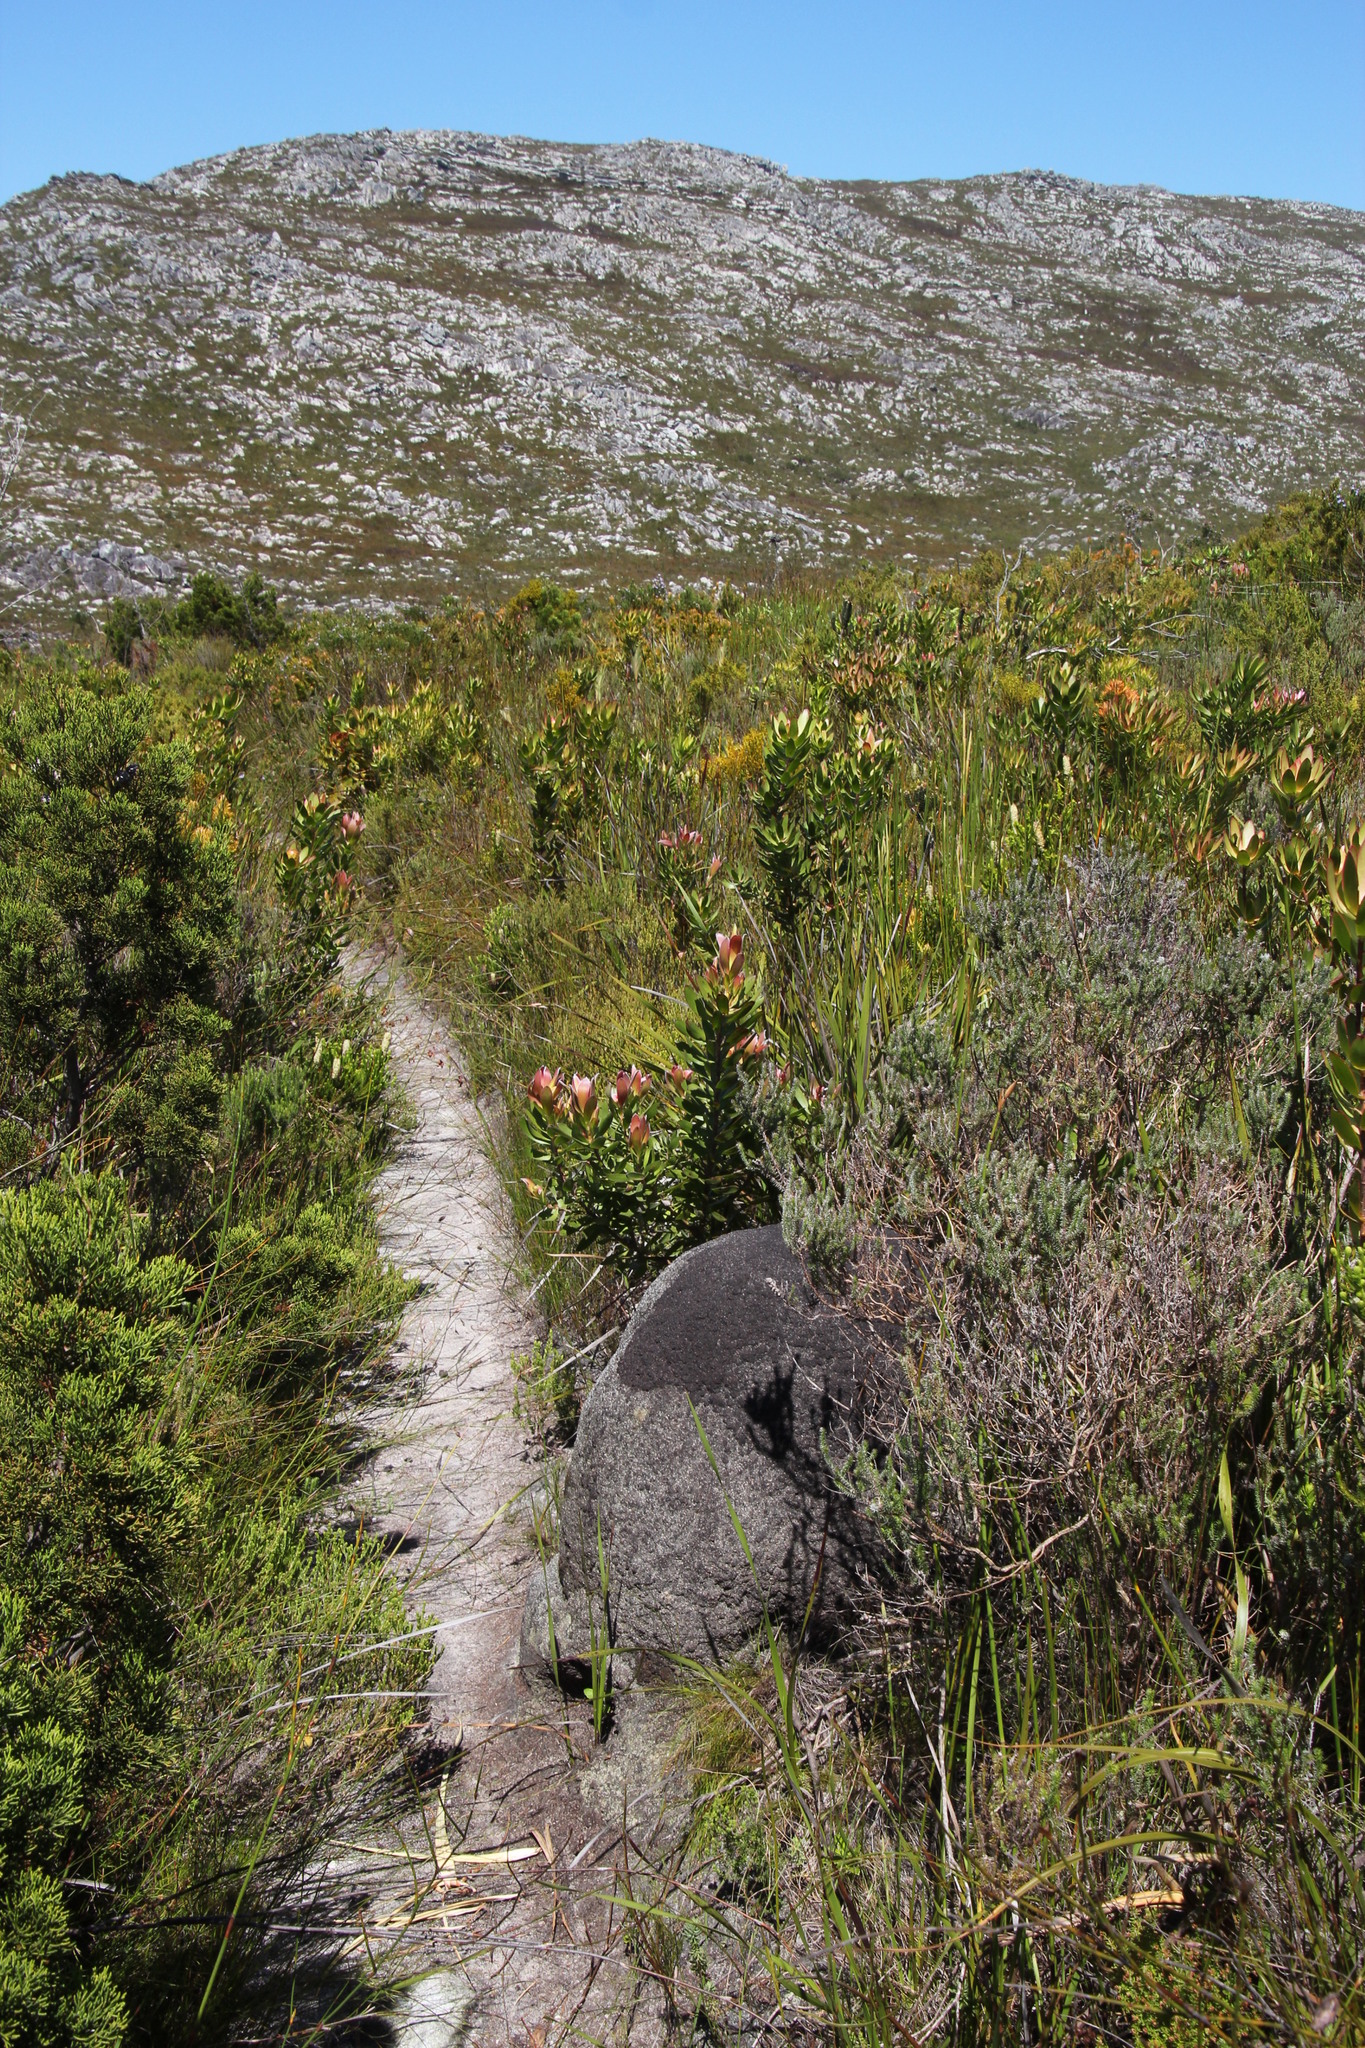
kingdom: Animalia
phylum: Arthropoda
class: Insecta
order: Blattodea
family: Termitidae
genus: Amitermes
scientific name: Amitermes hastatus
